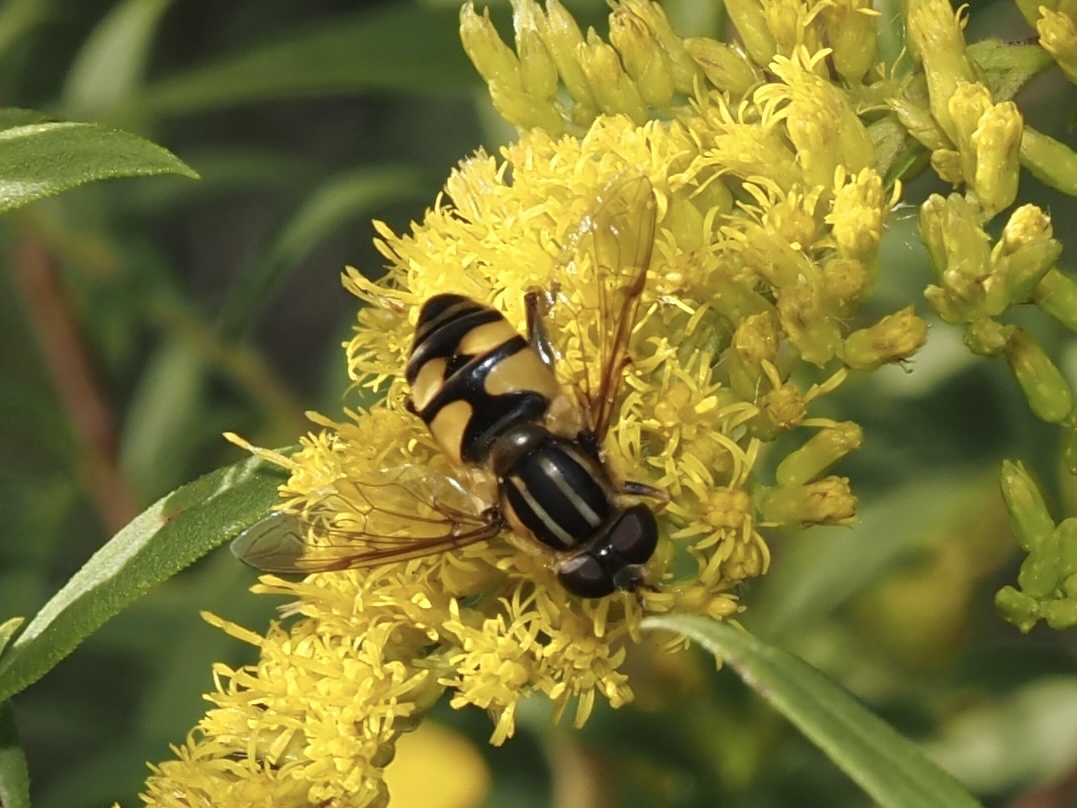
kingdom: Animalia
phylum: Arthropoda
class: Insecta
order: Diptera
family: Syrphidae
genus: Helophilus
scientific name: Helophilus fasciatus
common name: Narrow-headed marsh fly
